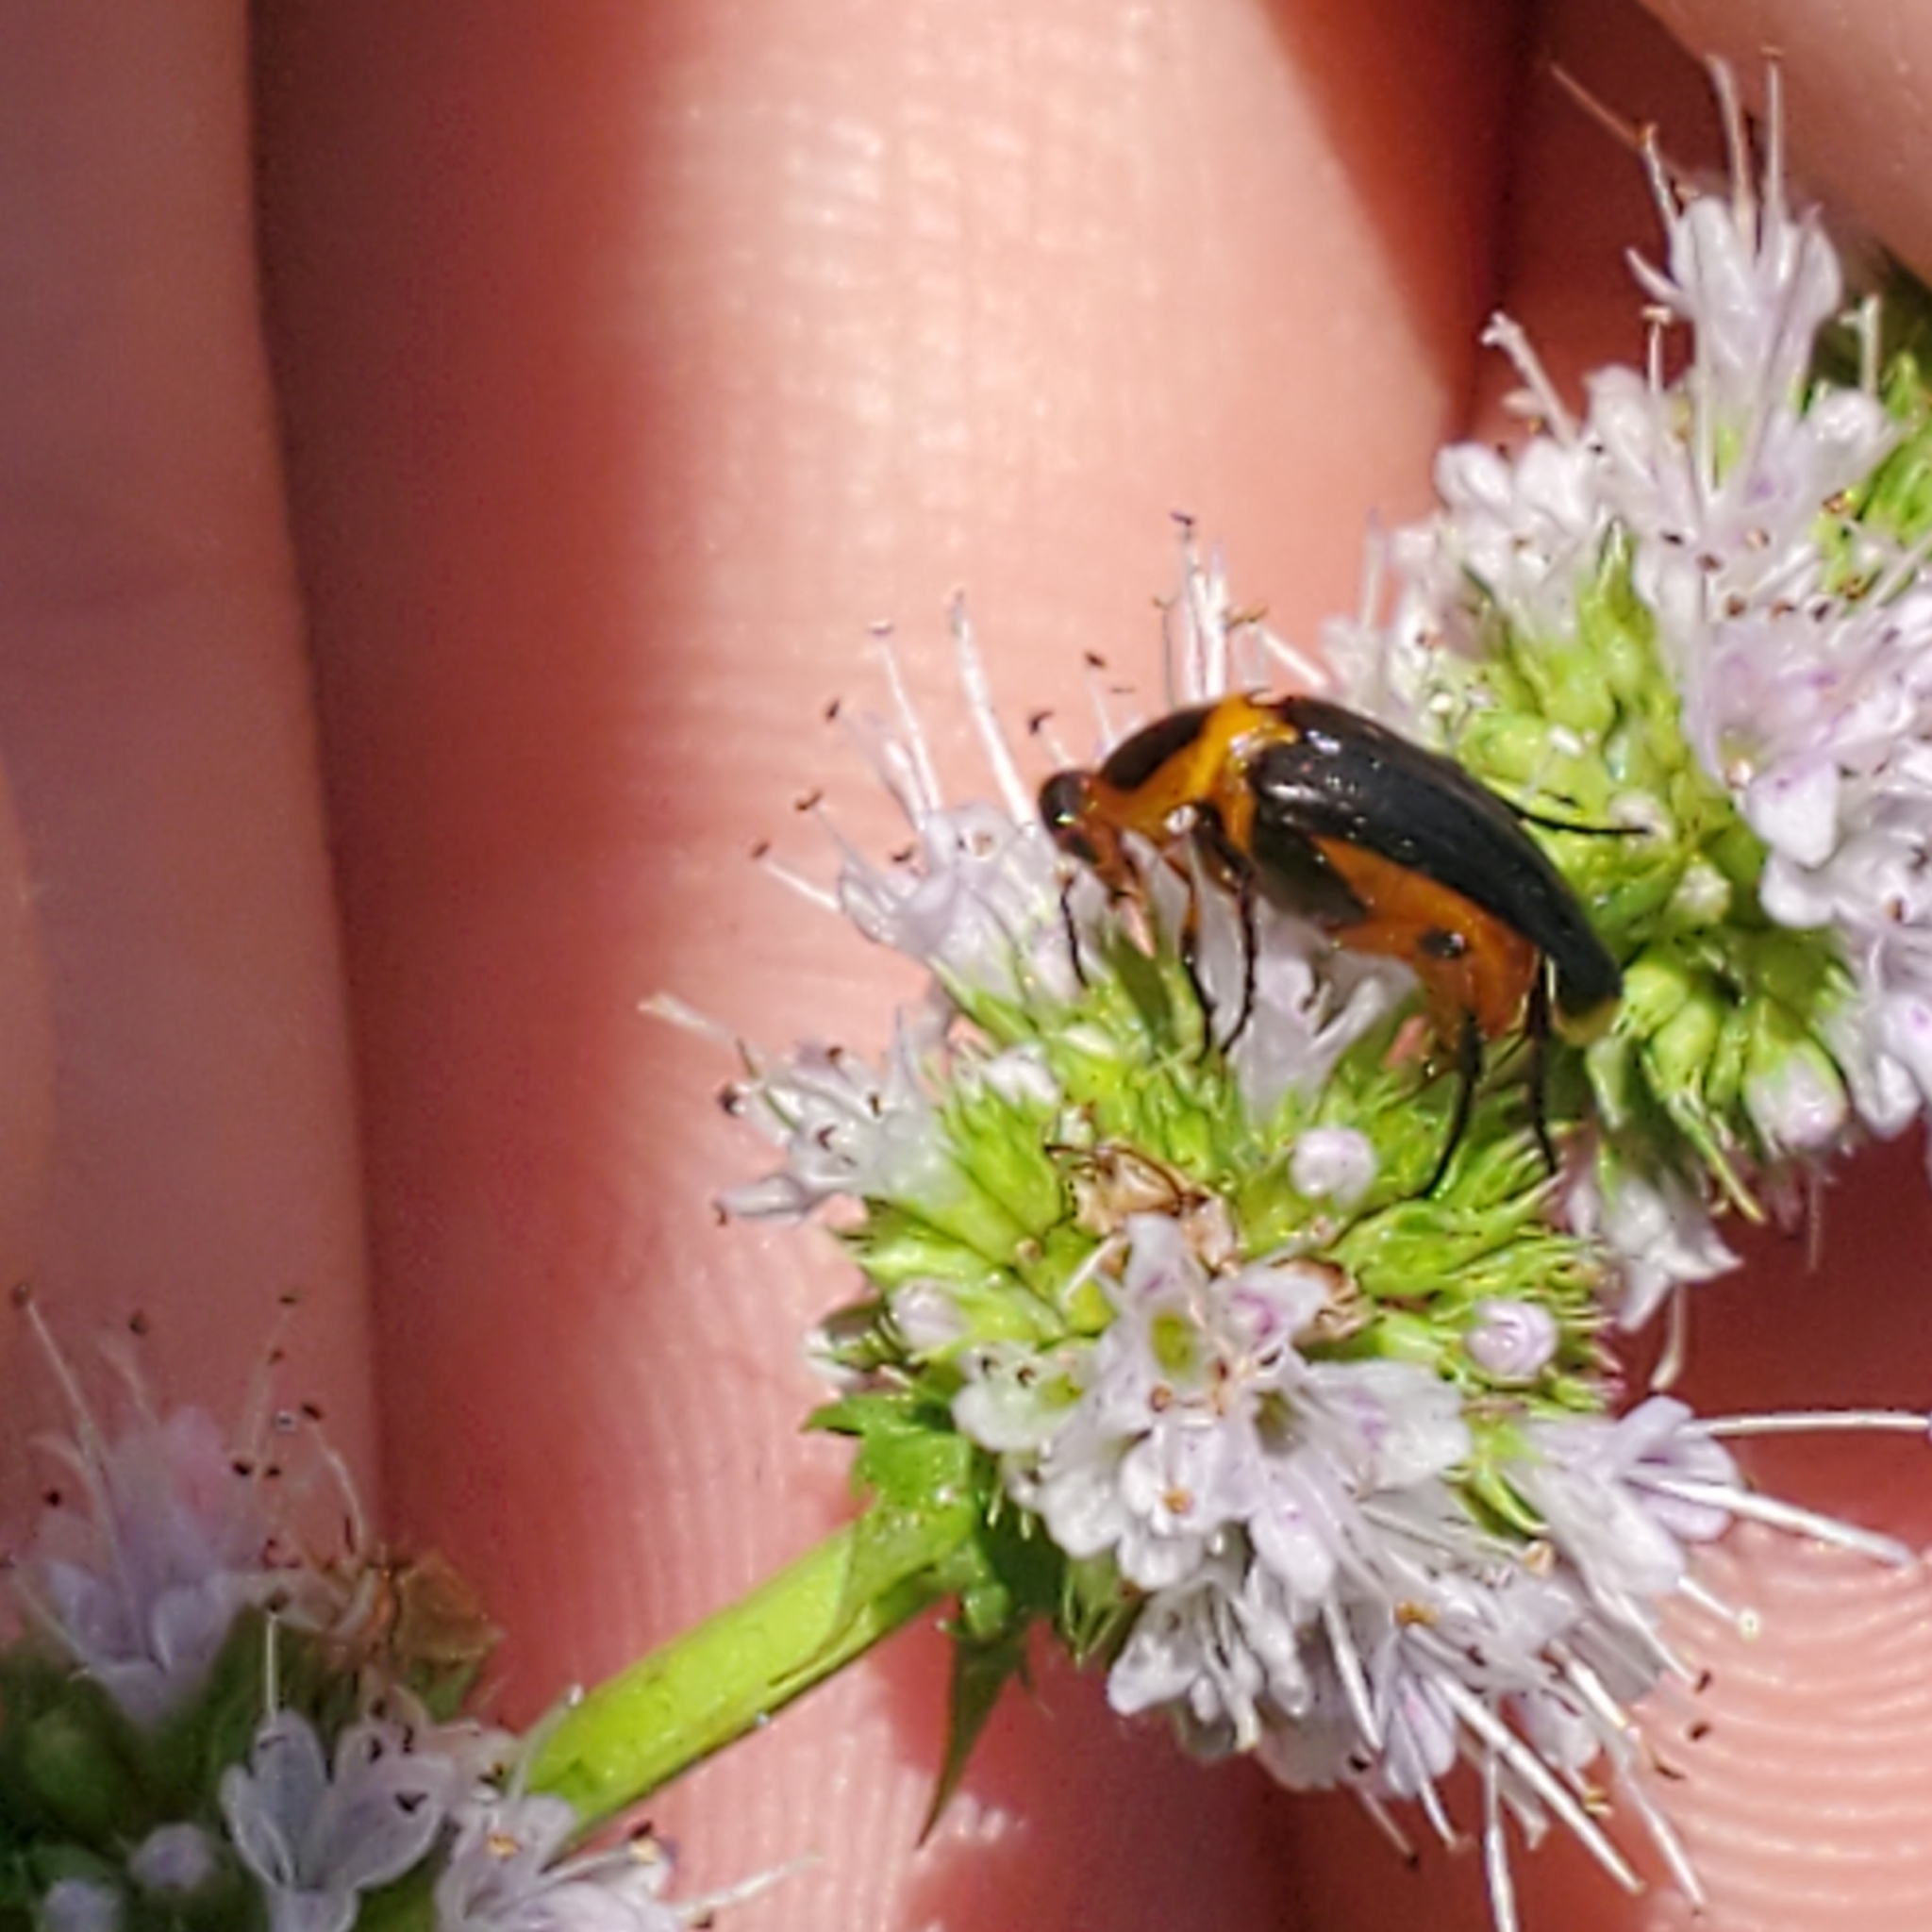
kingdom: Animalia
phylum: Arthropoda
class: Insecta
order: Coleoptera
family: Ripiphoridae
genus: Macrosiagon
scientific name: Macrosiagon limbatum
